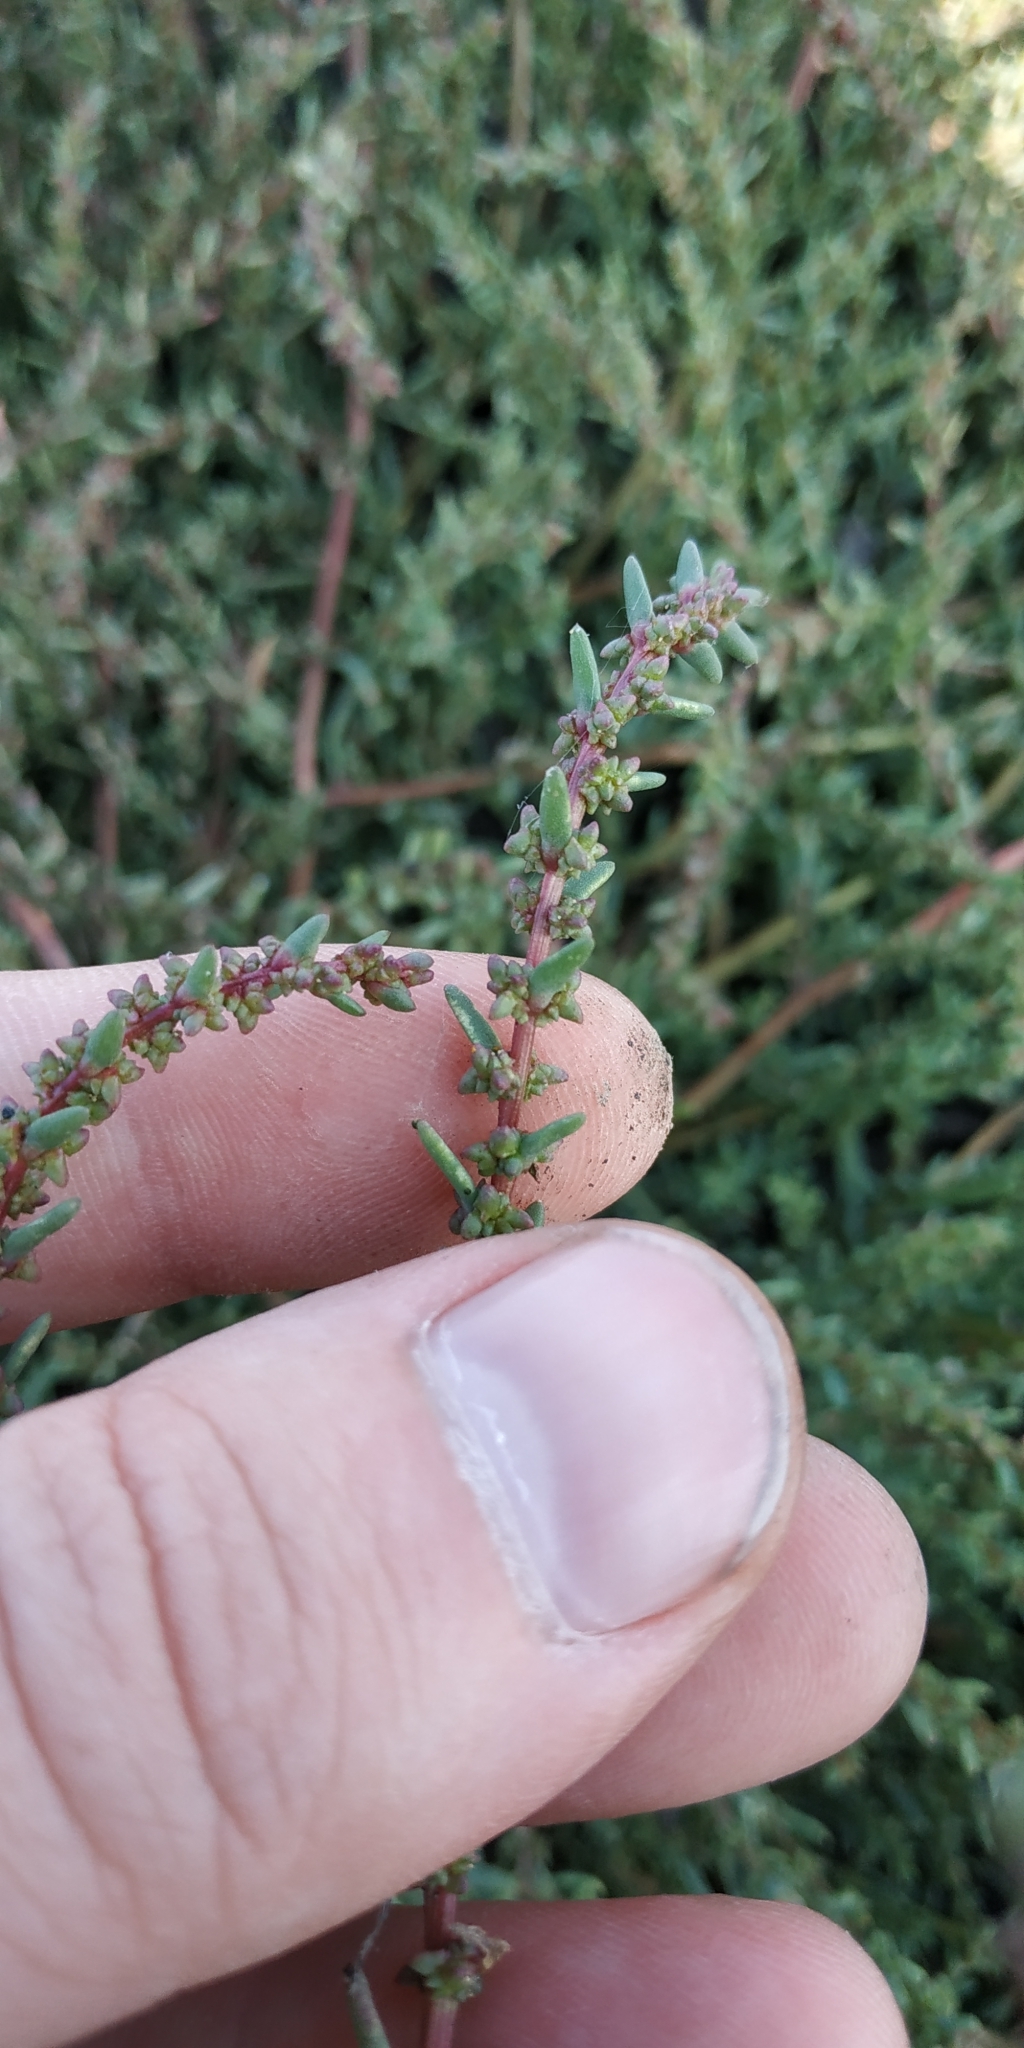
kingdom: Plantae
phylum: Tracheophyta
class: Magnoliopsida
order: Caryophyllales
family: Amaranthaceae
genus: Suaeda
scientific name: Suaeda salsa
